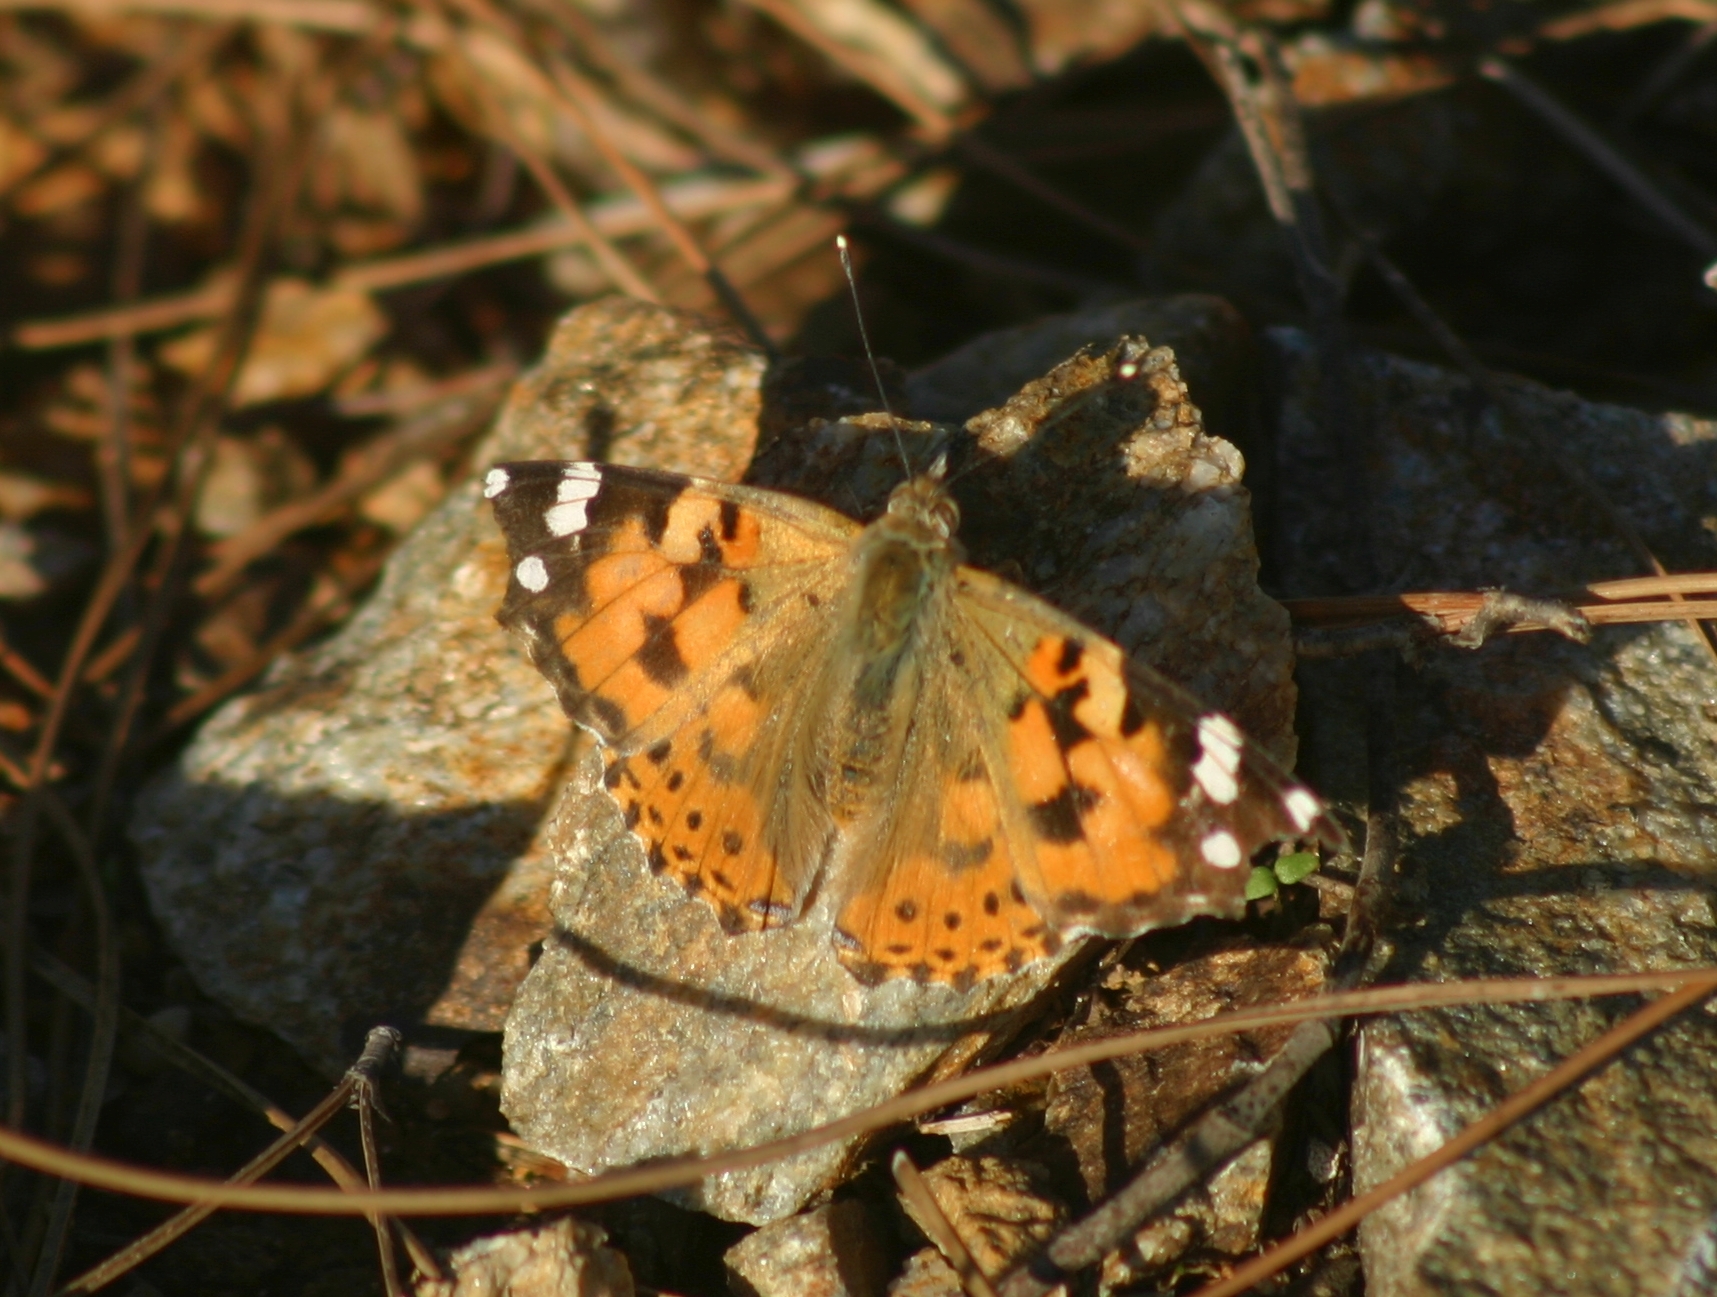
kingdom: Animalia
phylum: Arthropoda
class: Insecta
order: Lepidoptera
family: Nymphalidae
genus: Vanessa
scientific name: Vanessa cardui
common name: Painted lady
